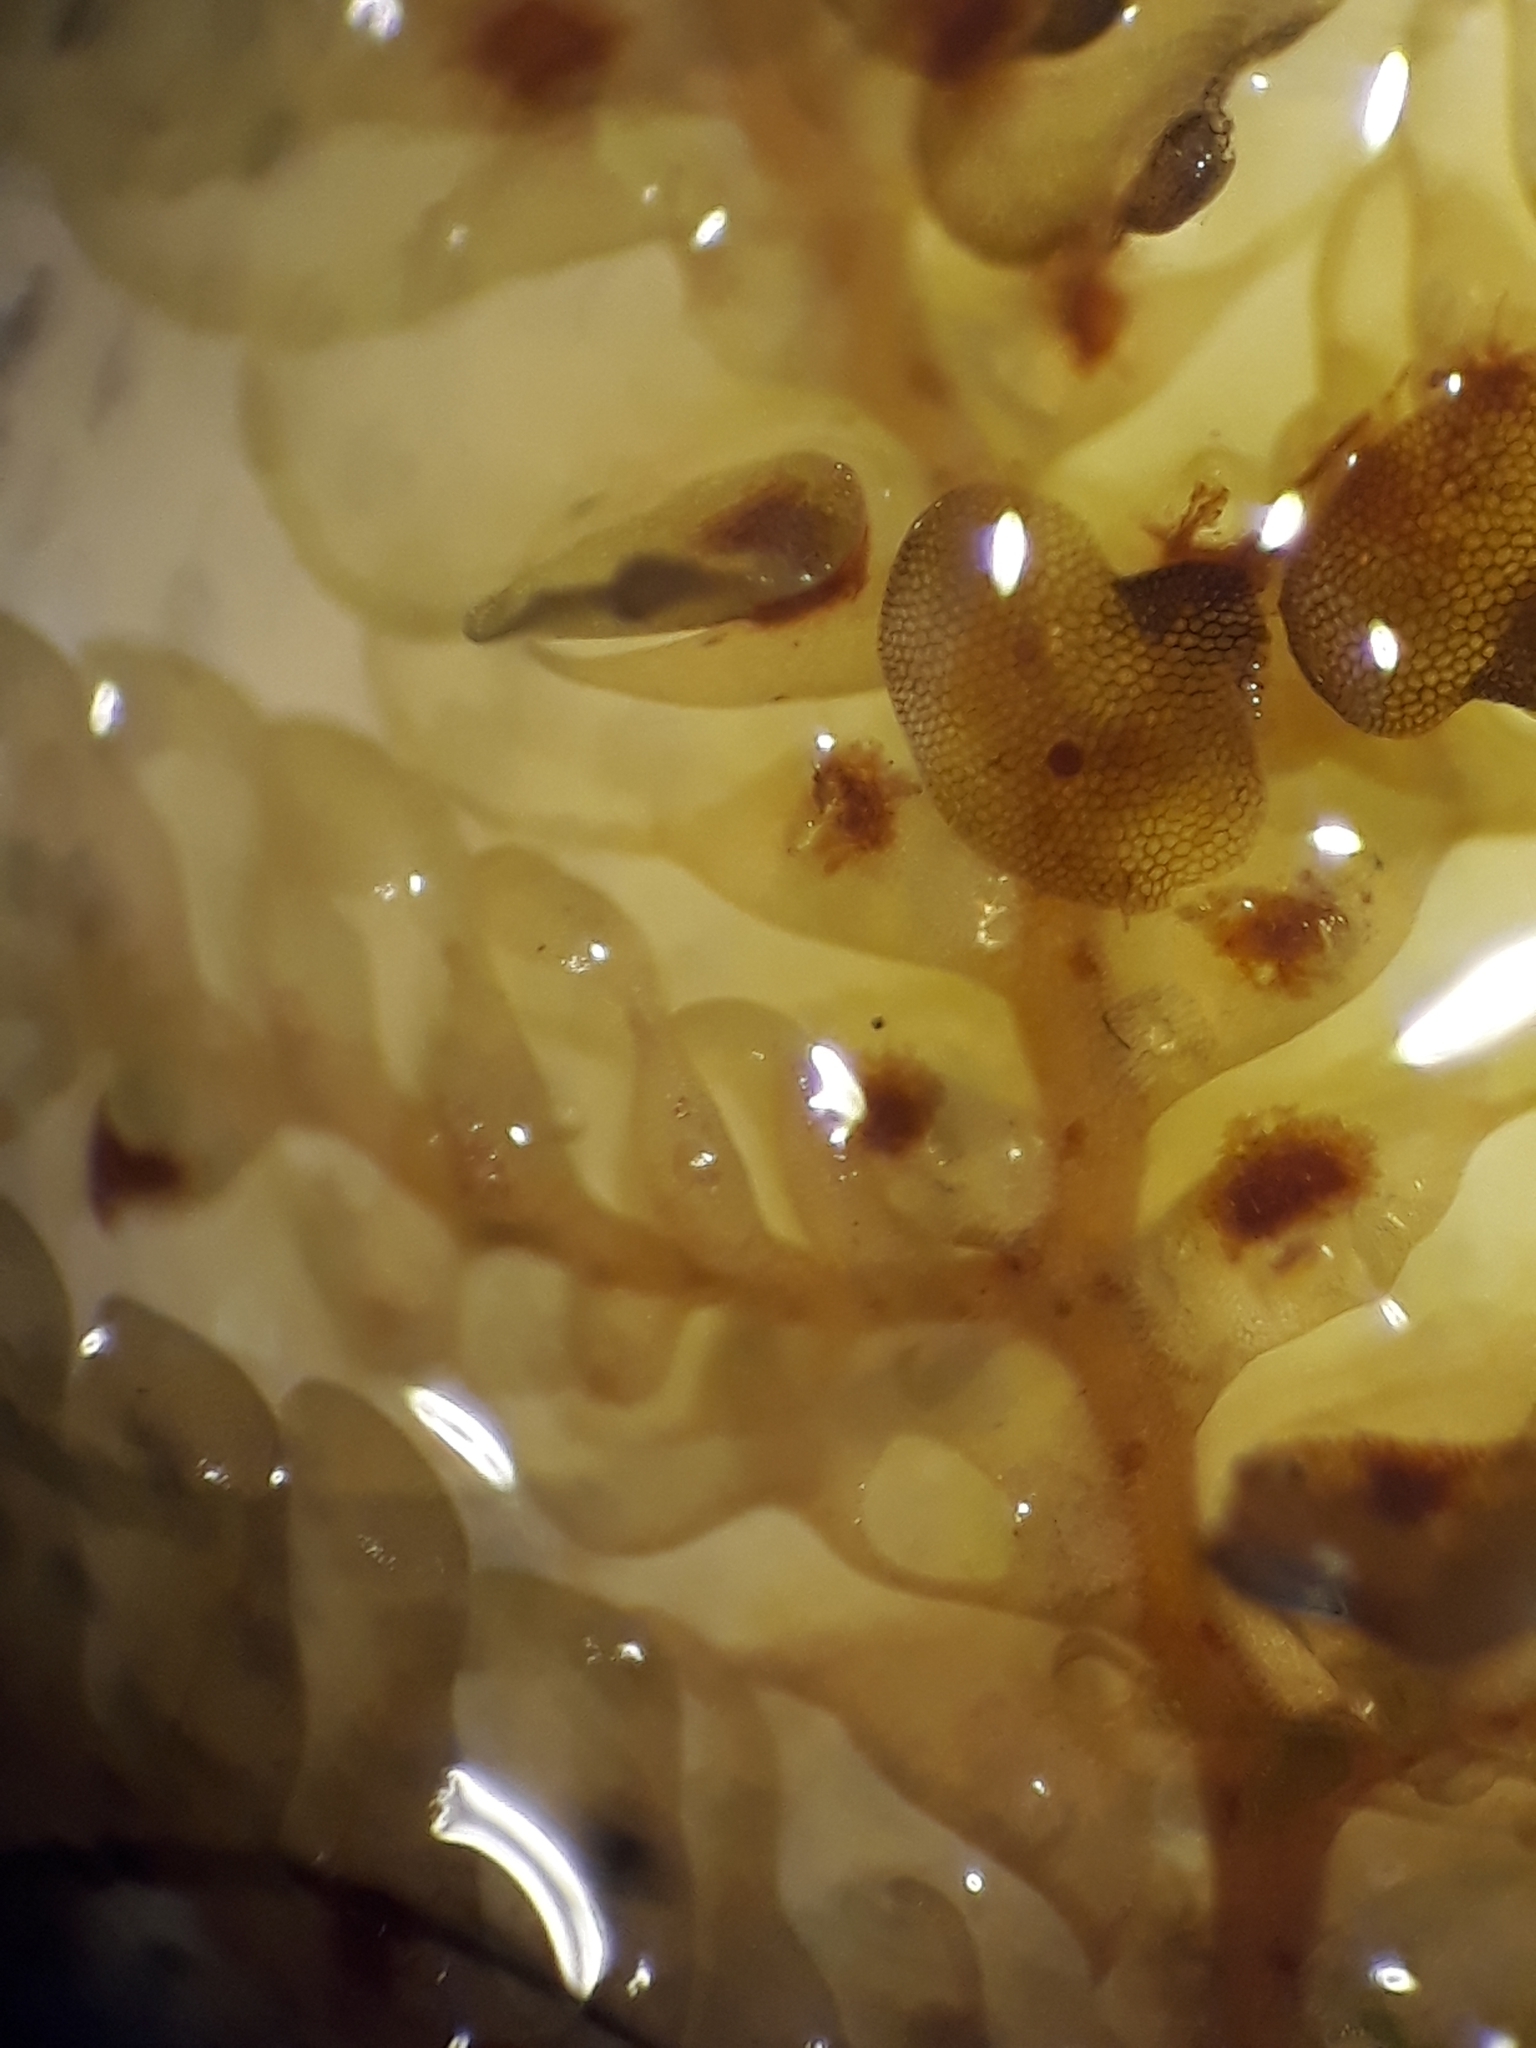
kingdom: Plantae
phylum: Marchantiophyta
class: Jungermanniopsida
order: Porellales
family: Radulaceae
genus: Radula
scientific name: Radula grandis
